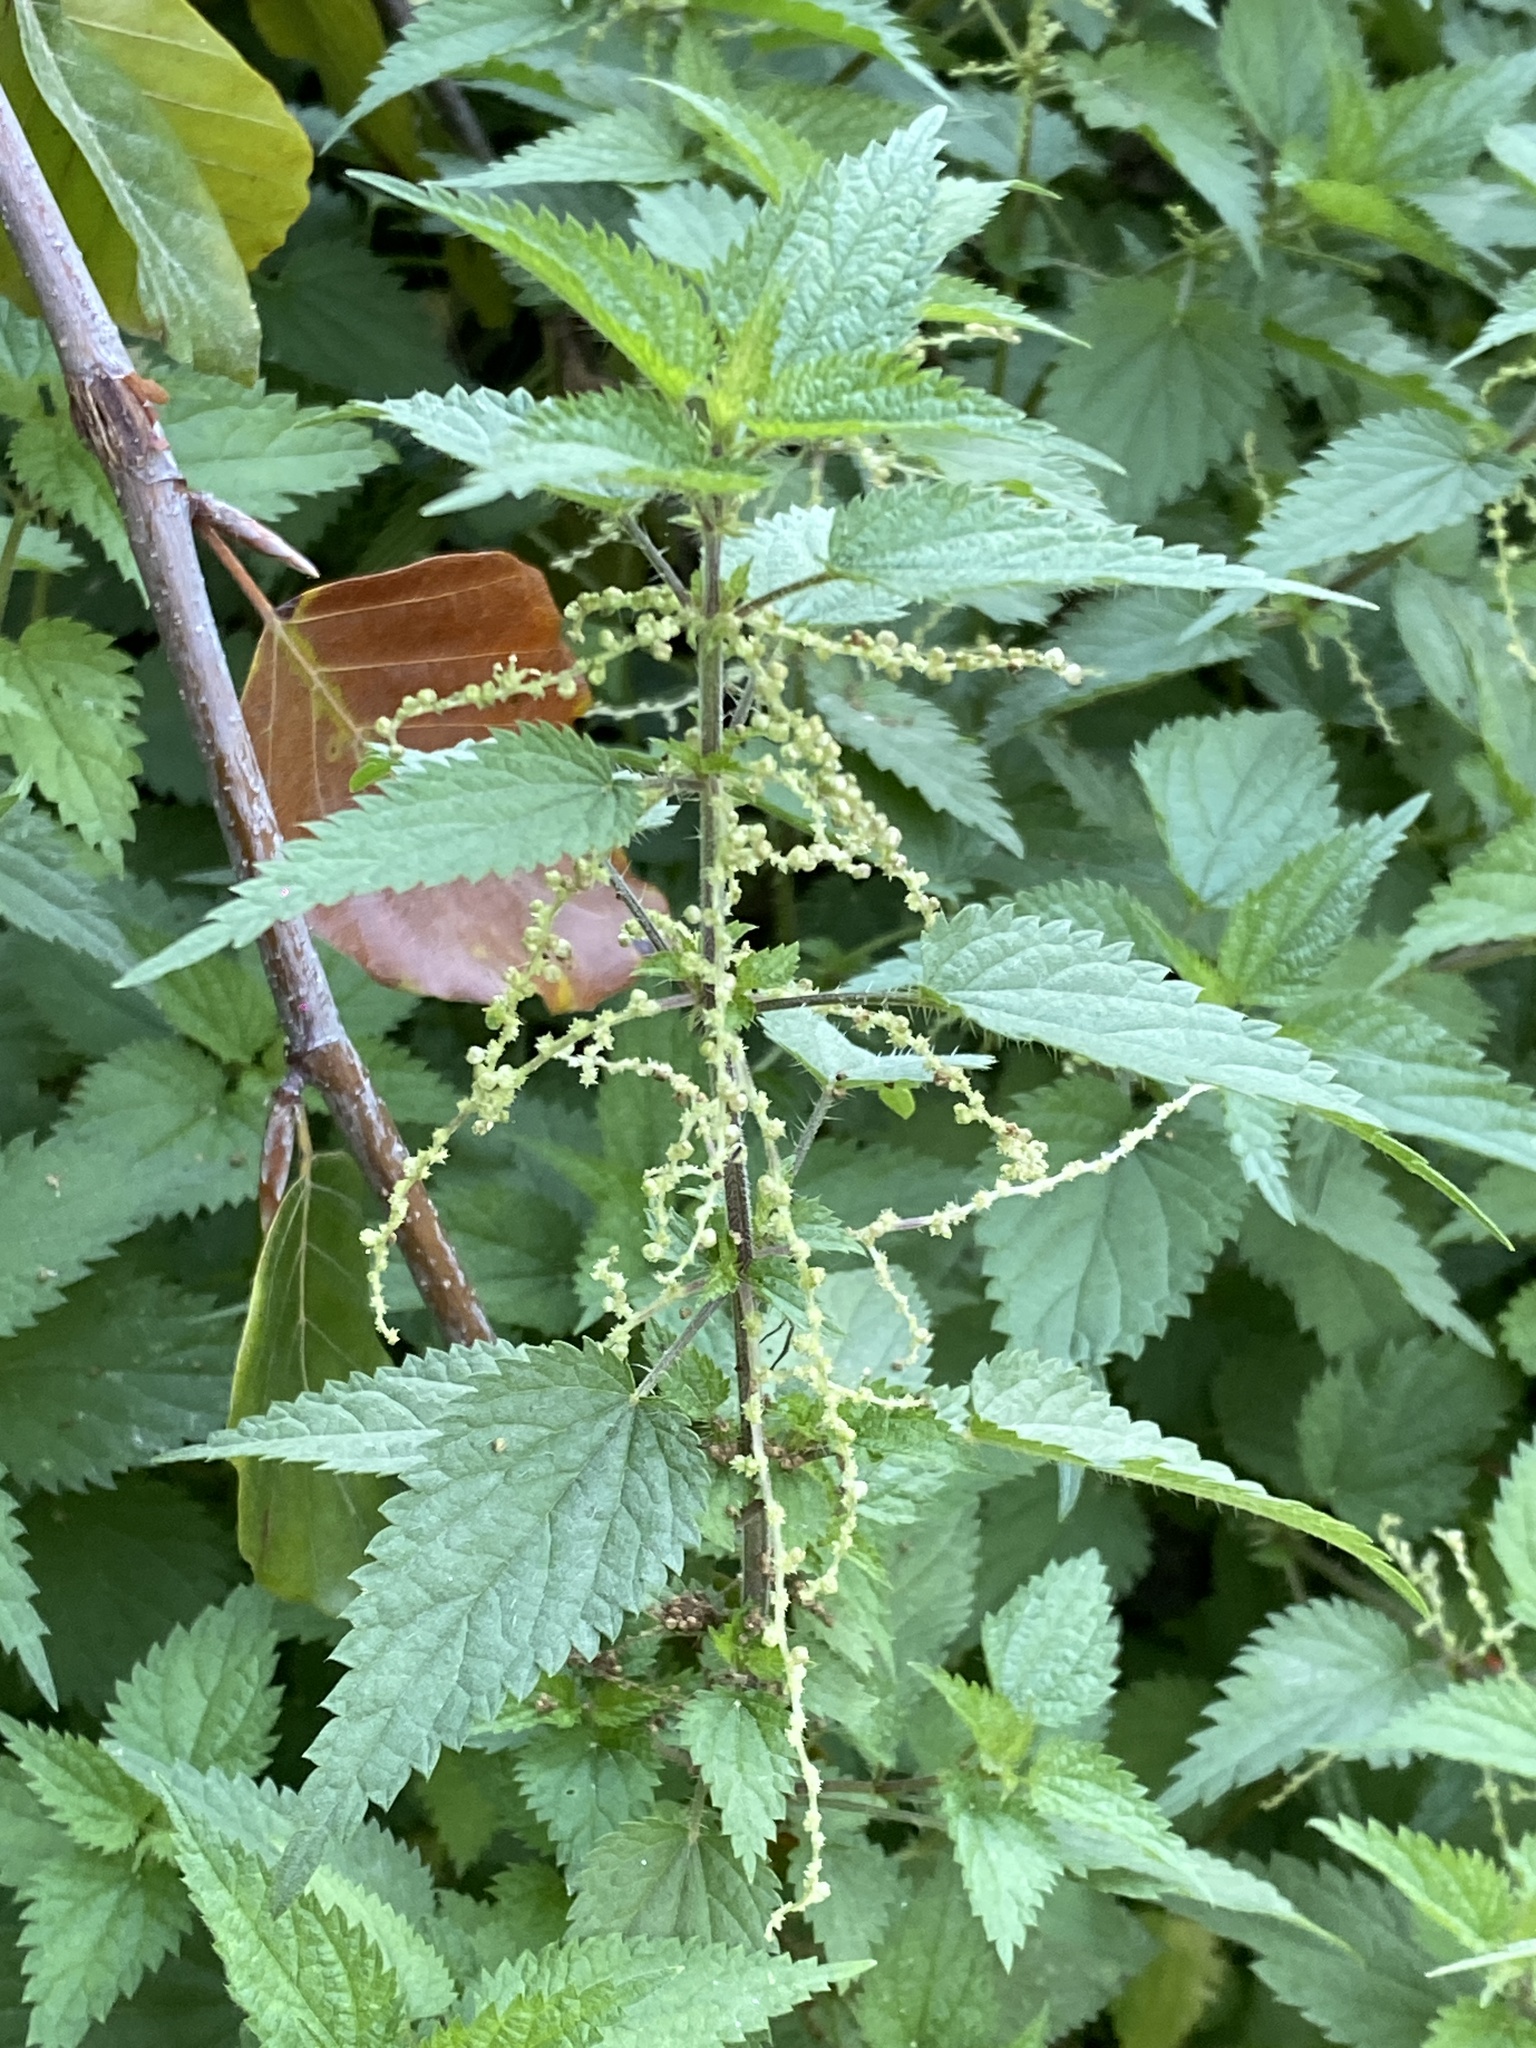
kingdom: Plantae
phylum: Tracheophyta
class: Magnoliopsida
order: Rosales
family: Urticaceae
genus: Urtica
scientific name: Urtica dioica
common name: Common nettle
